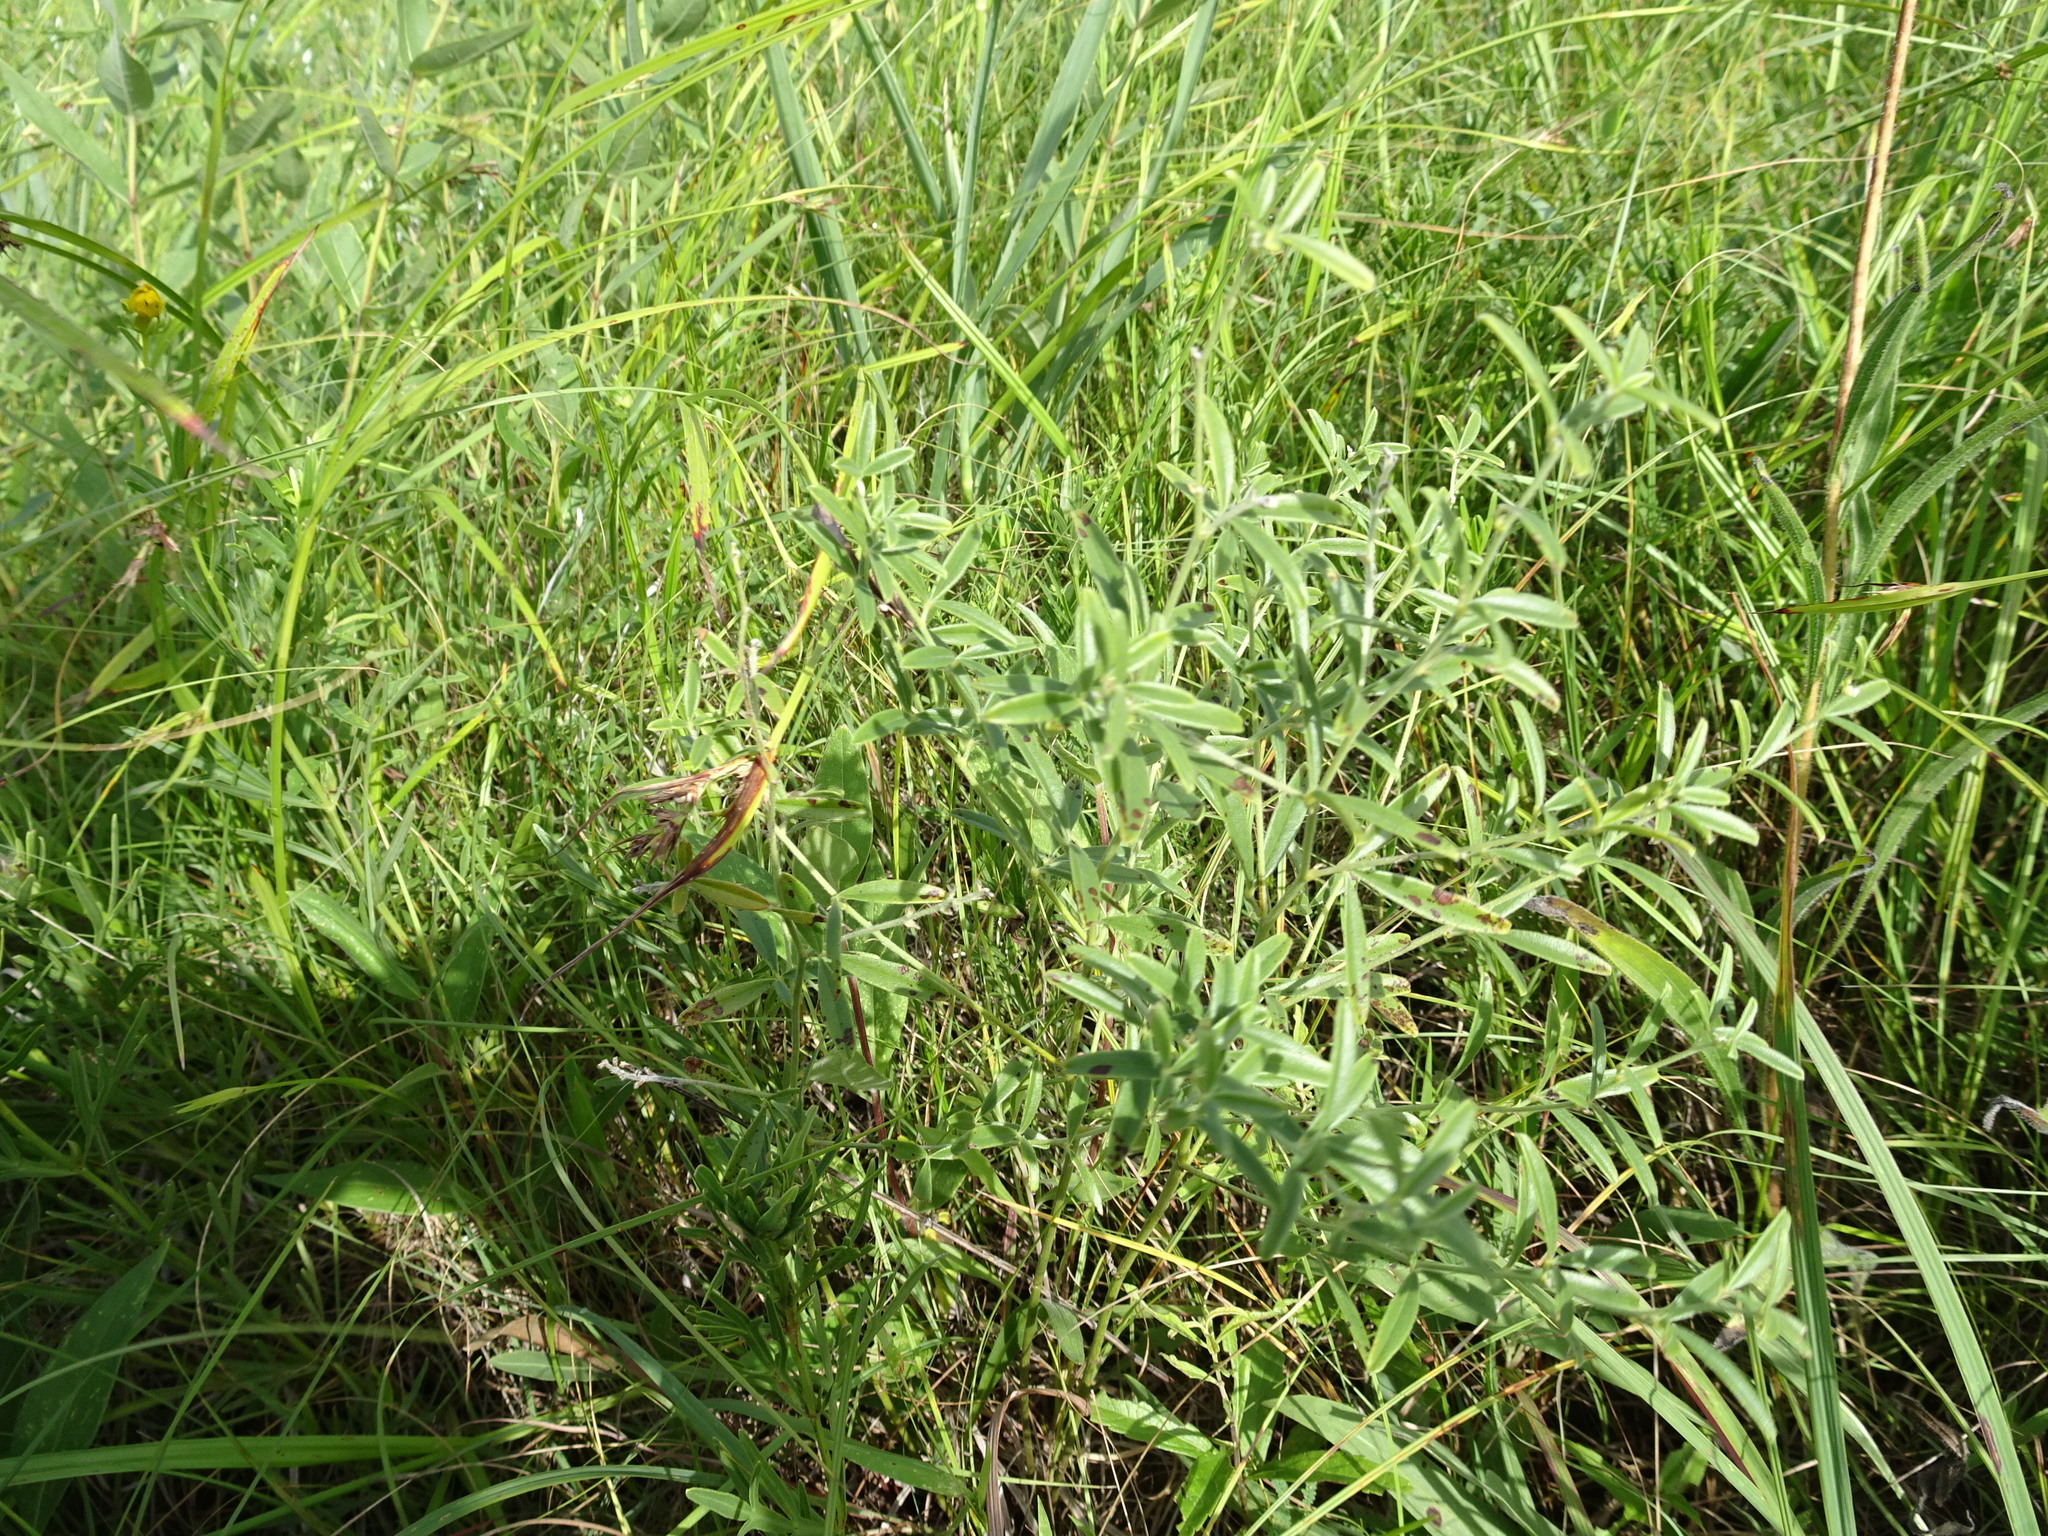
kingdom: Plantae
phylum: Tracheophyta
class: Magnoliopsida
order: Fabales
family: Fabaceae
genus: Pediomelum
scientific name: Pediomelum tenuiflorum
